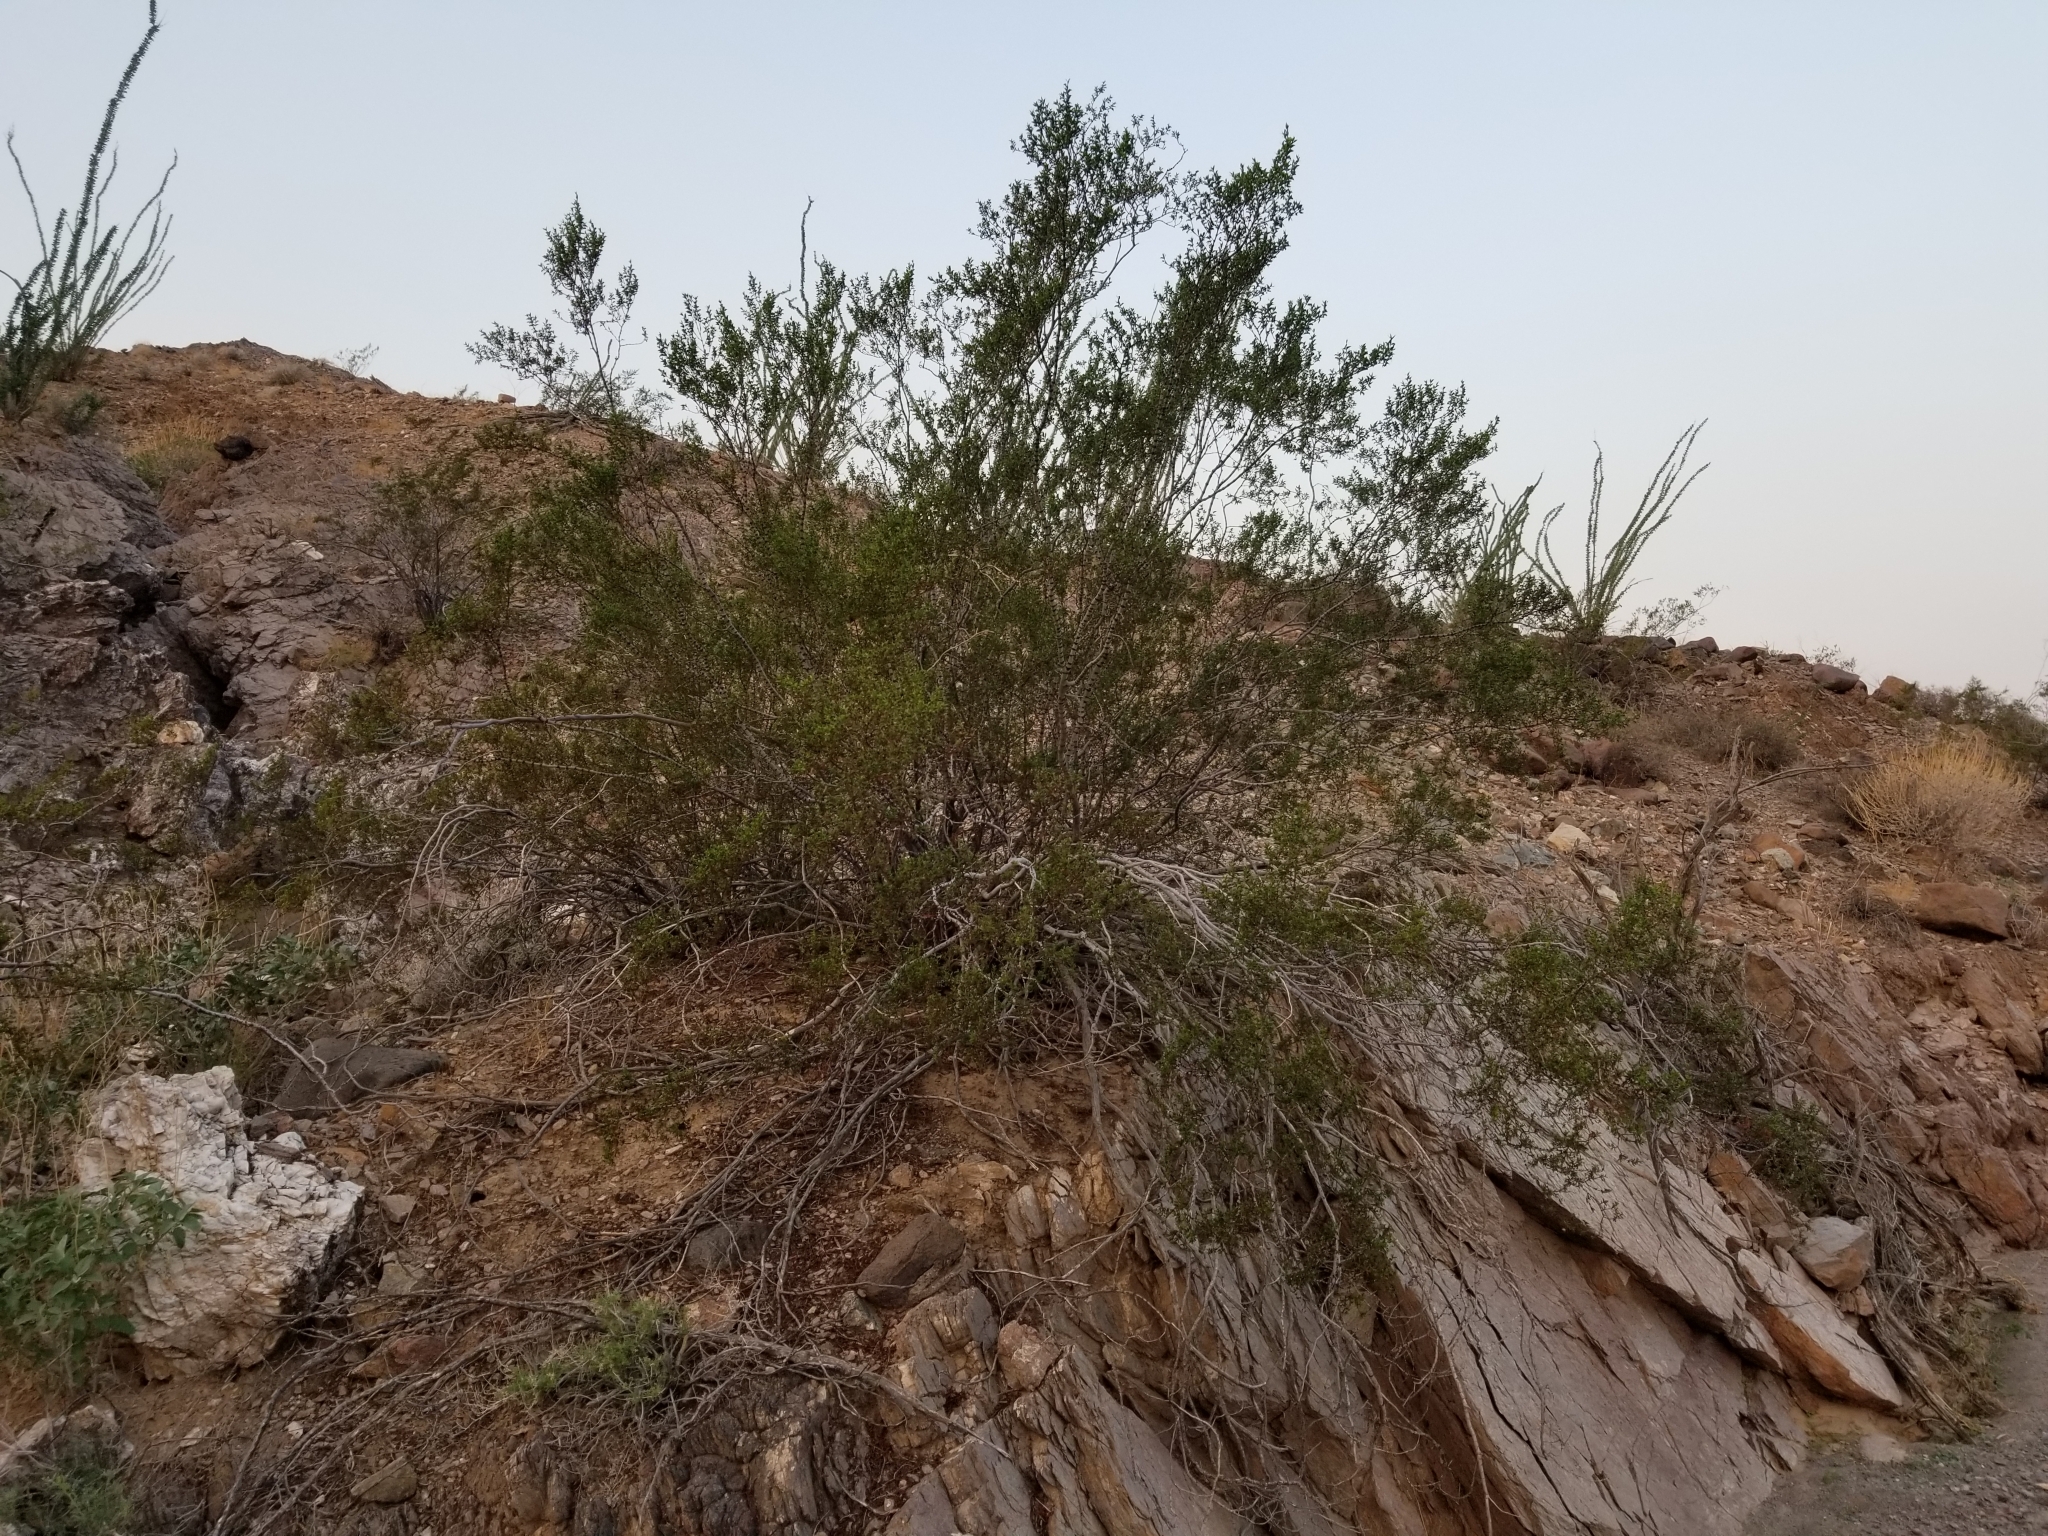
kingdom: Plantae
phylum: Tracheophyta
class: Magnoliopsida
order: Zygophyllales
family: Zygophyllaceae
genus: Larrea
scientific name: Larrea tridentata
